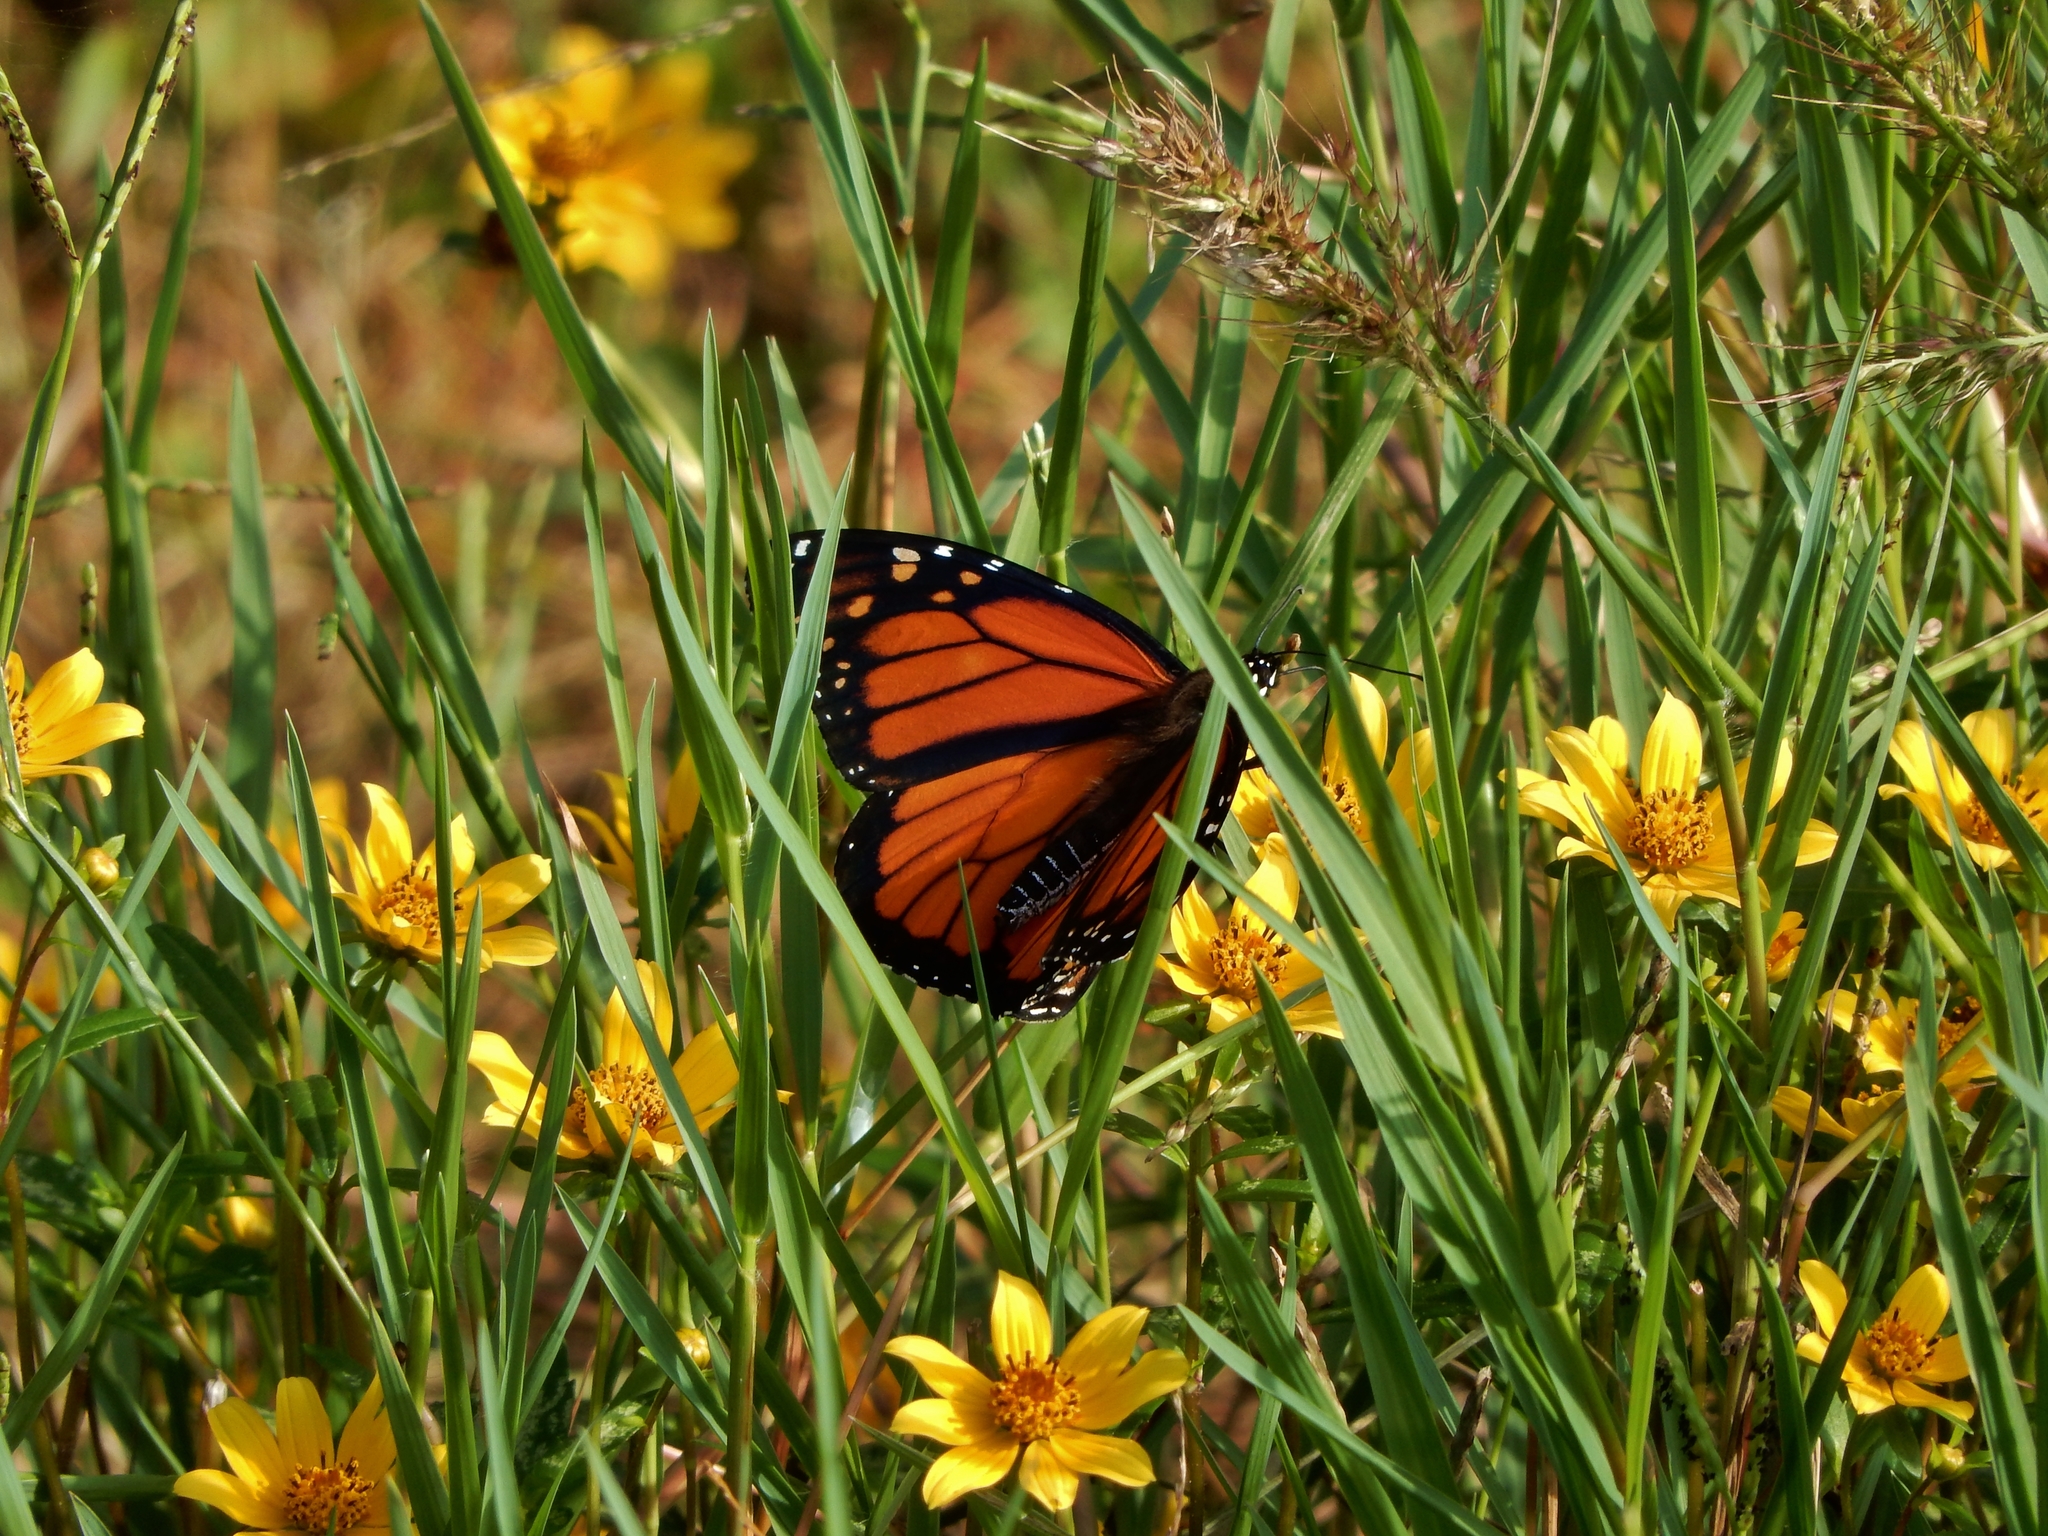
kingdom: Animalia
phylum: Arthropoda
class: Insecta
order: Lepidoptera
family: Nymphalidae
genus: Danaus
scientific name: Danaus plexippus
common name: Monarch
